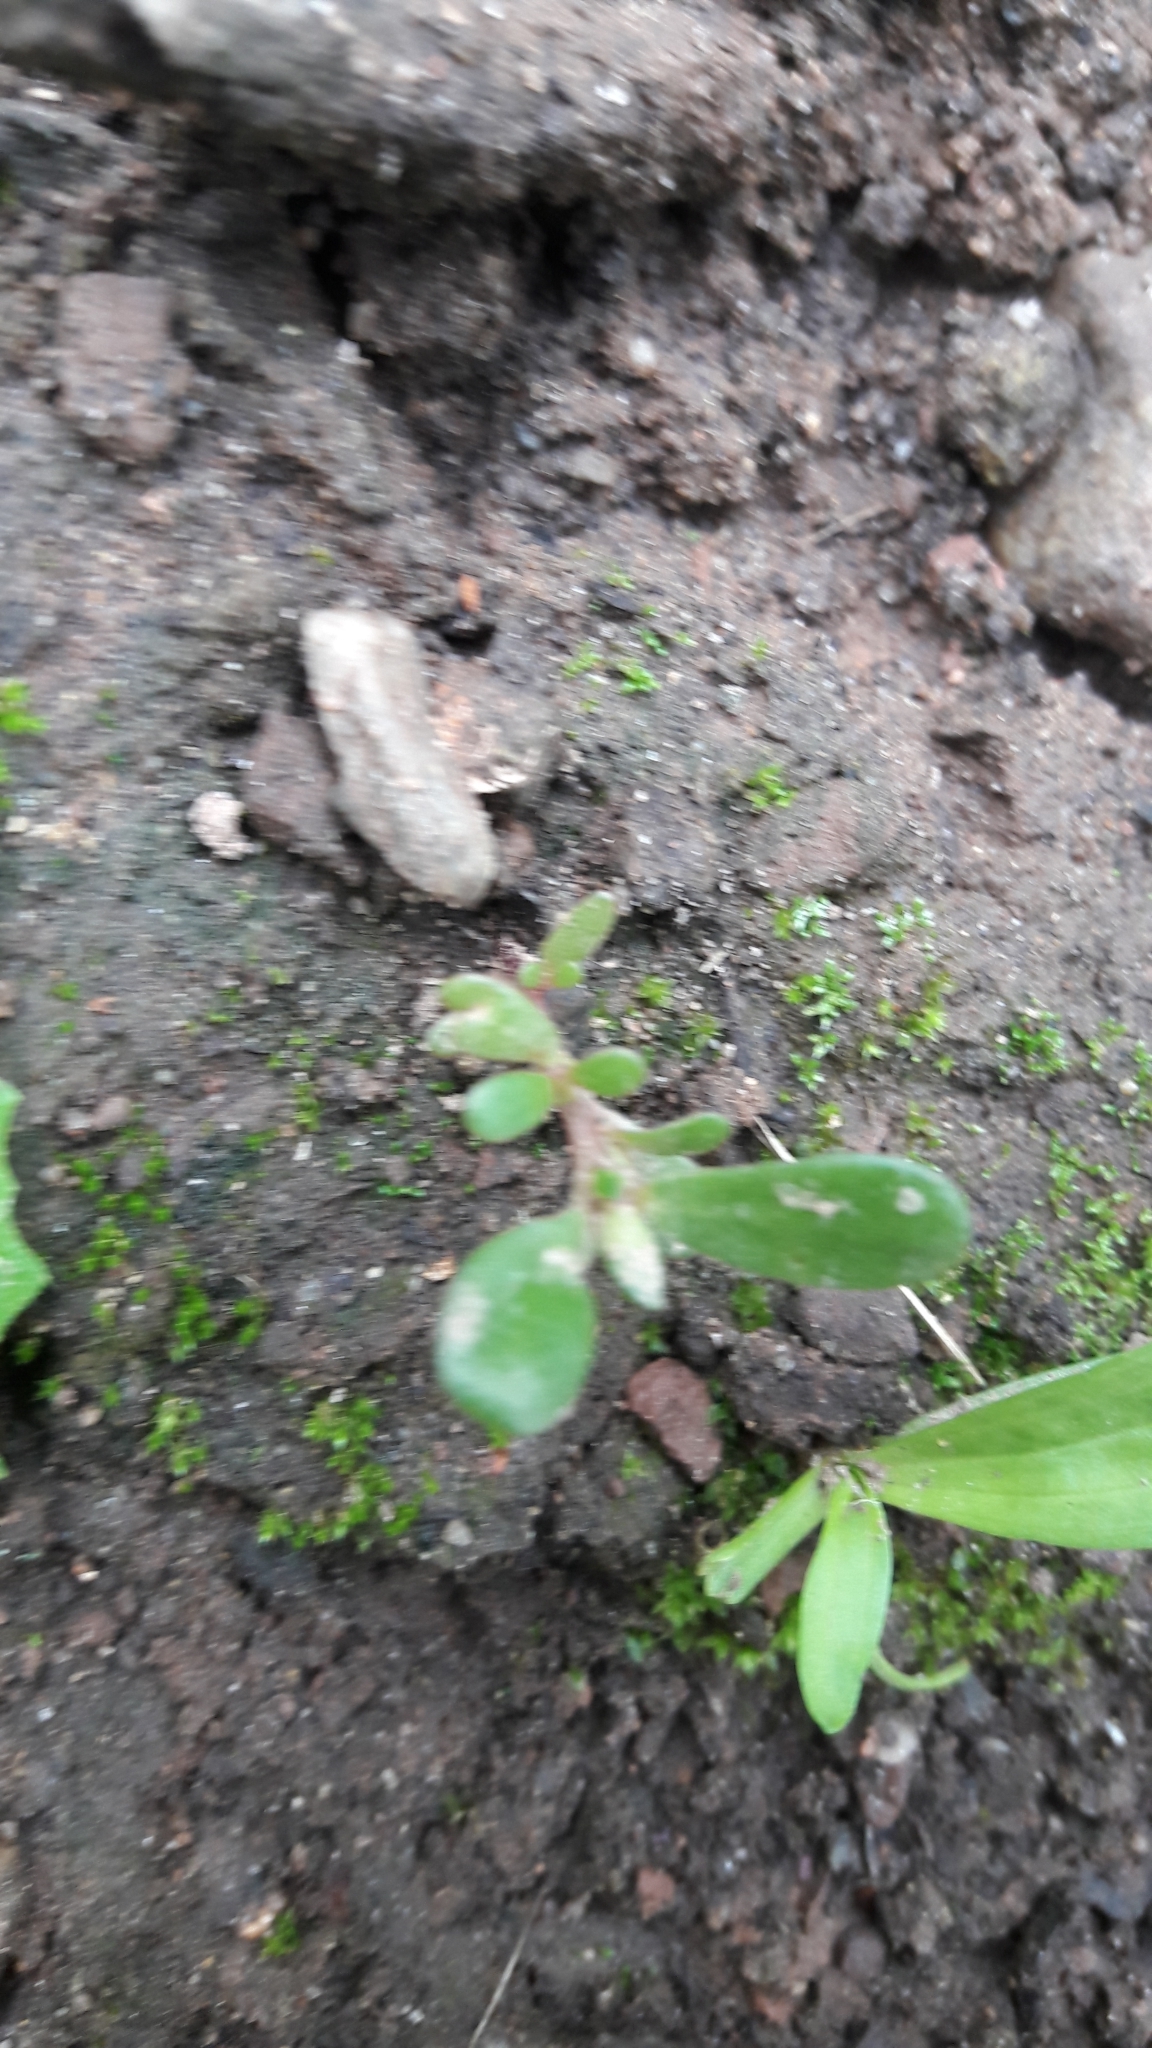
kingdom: Plantae
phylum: Tracheophyta
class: Magnoliopsida
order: Caryophyllales
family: Portulacaceae
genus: Portulaca
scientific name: Portulaca oleracea
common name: Common purslane
